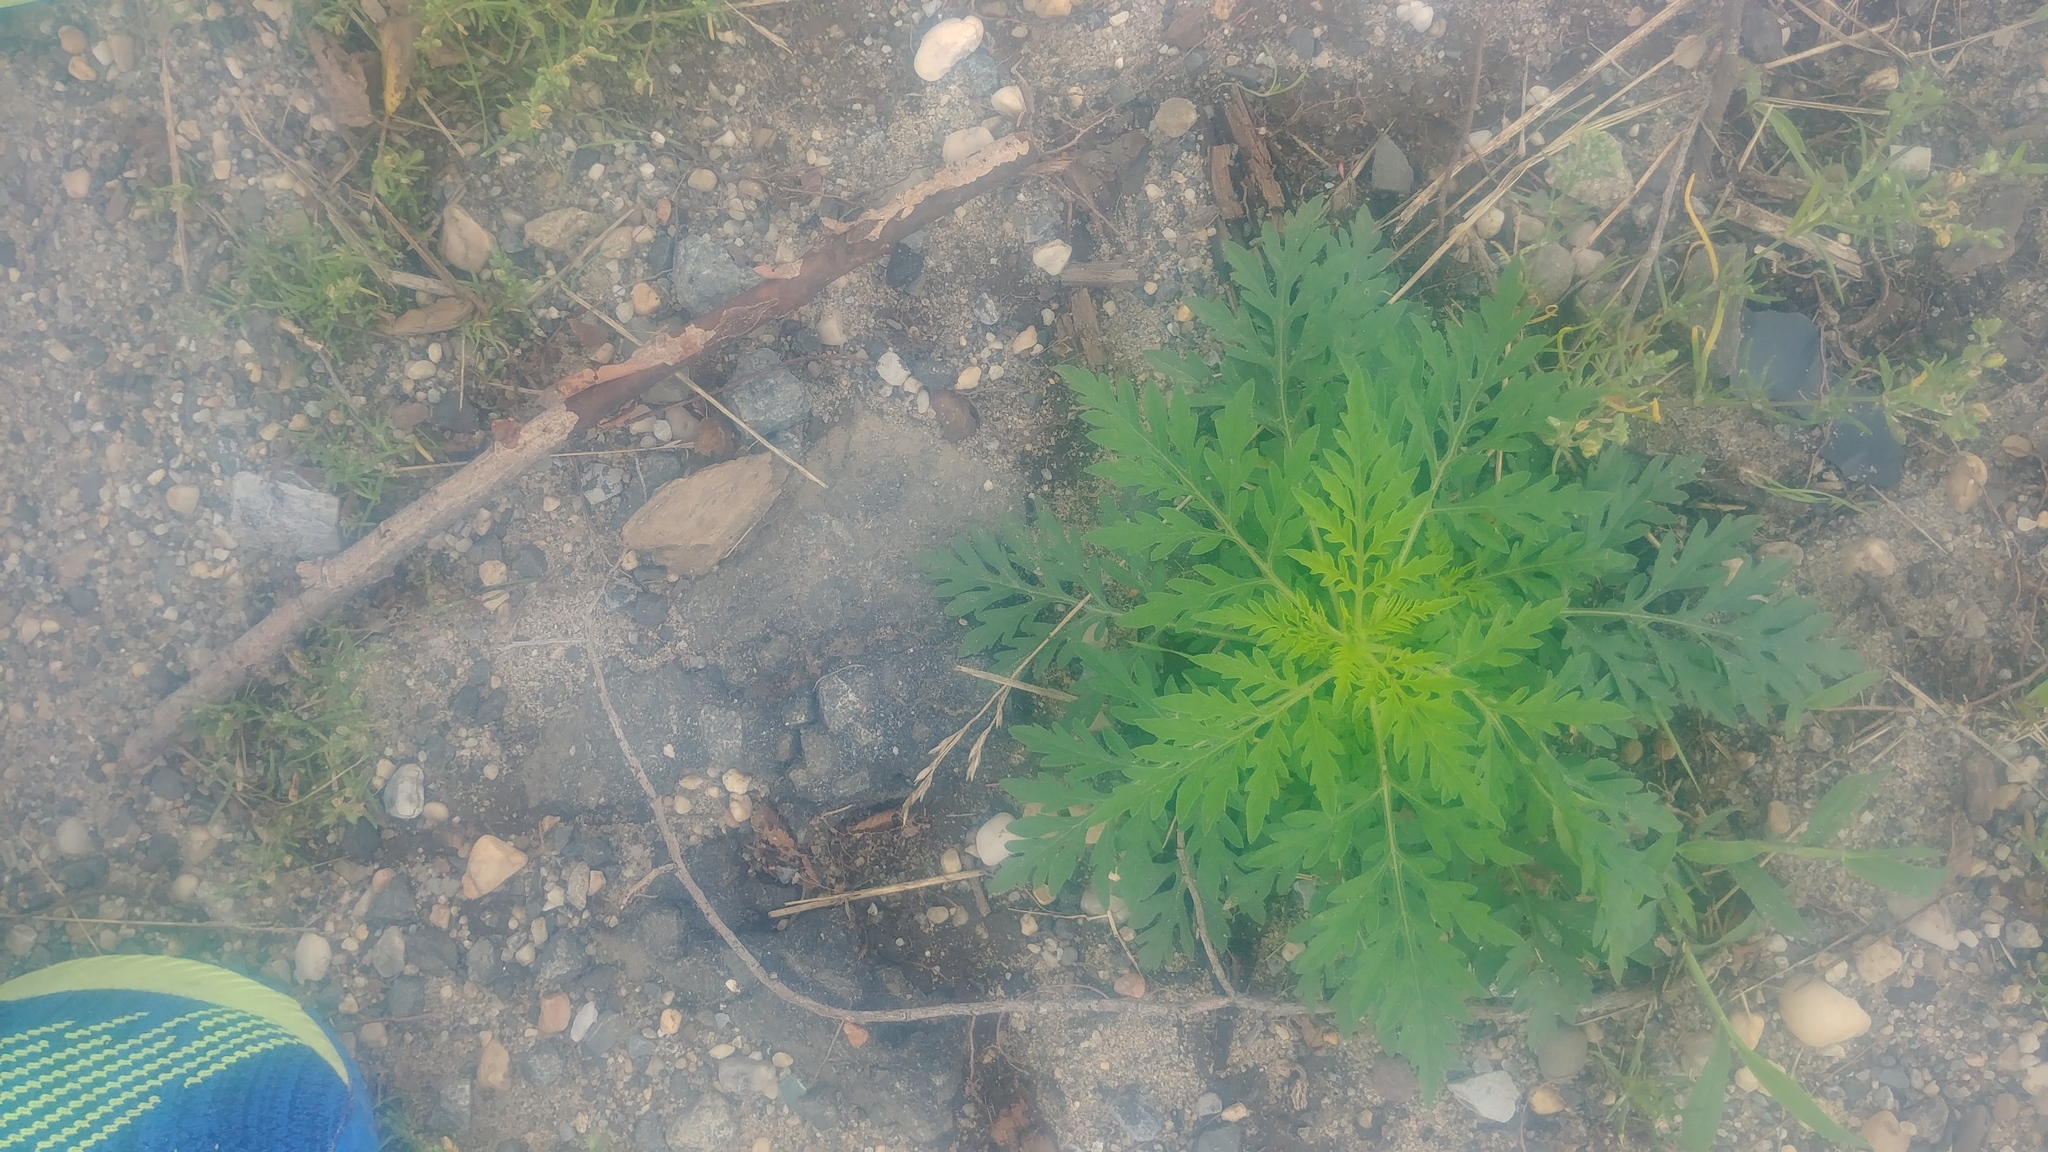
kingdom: Plantae
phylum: Tracheophyta
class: Magnoliopsida
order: Asterales
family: Asteraceae
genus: Ambrosia
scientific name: Ambrosia artemisiifolia
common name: Annual ragweed
